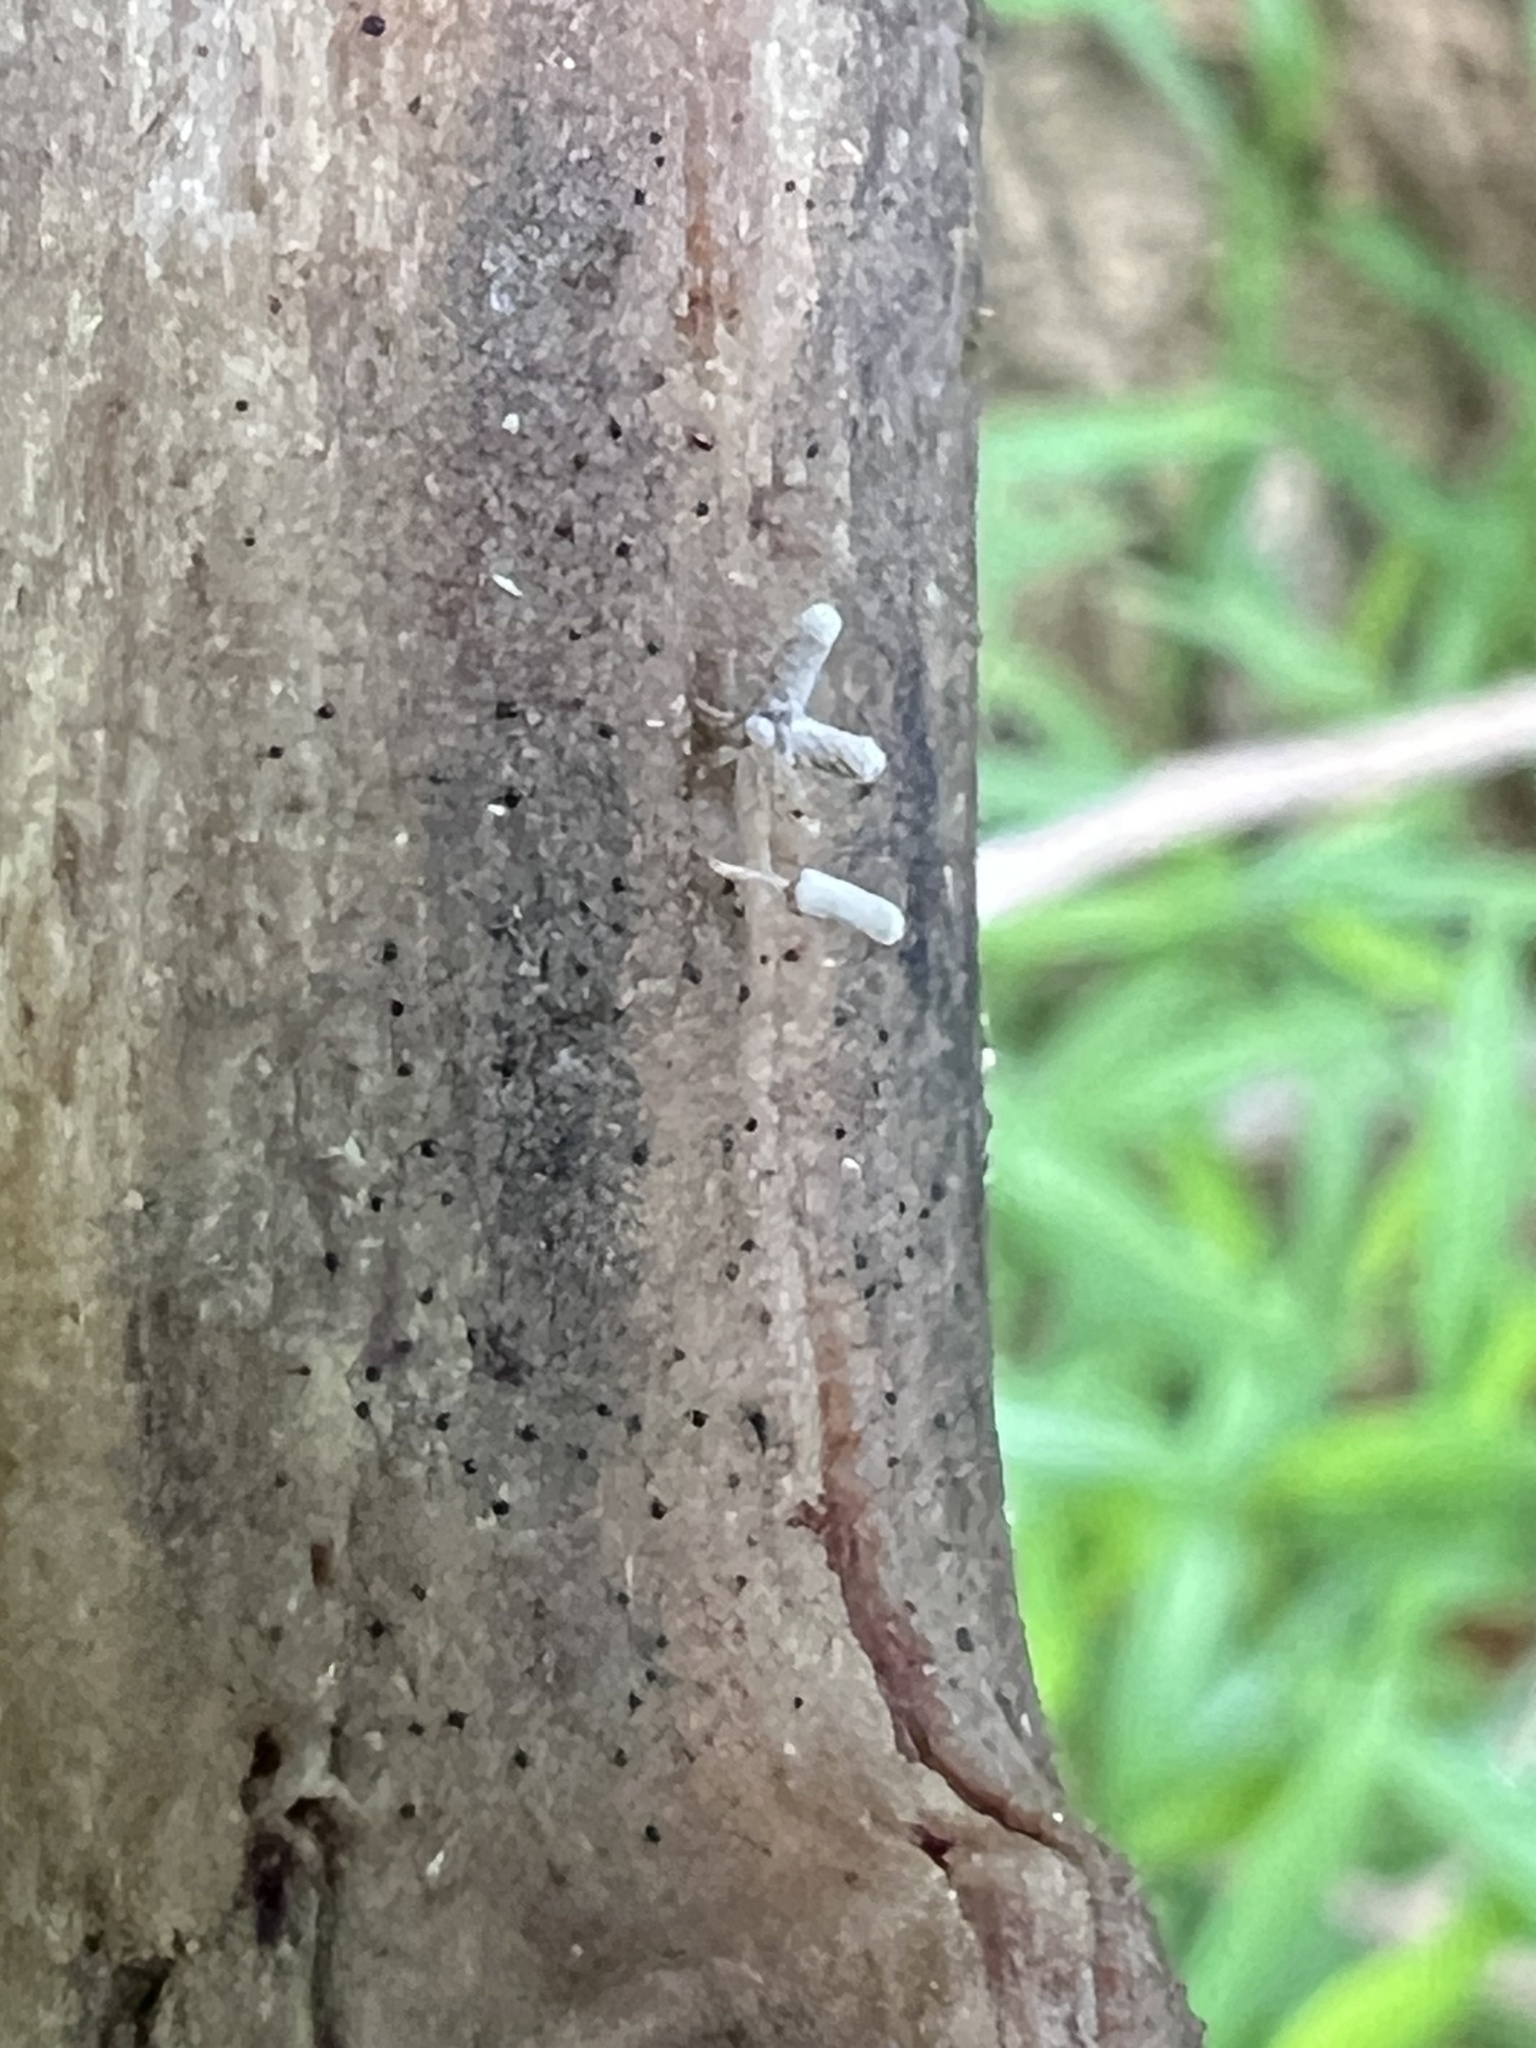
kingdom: Protozoa
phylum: Mycetozoa
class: Myxomycetes
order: Trichiales
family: Arcyriaceae
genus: Arcyria
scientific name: Arcyria cinerea
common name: White carnival candy slime mold
